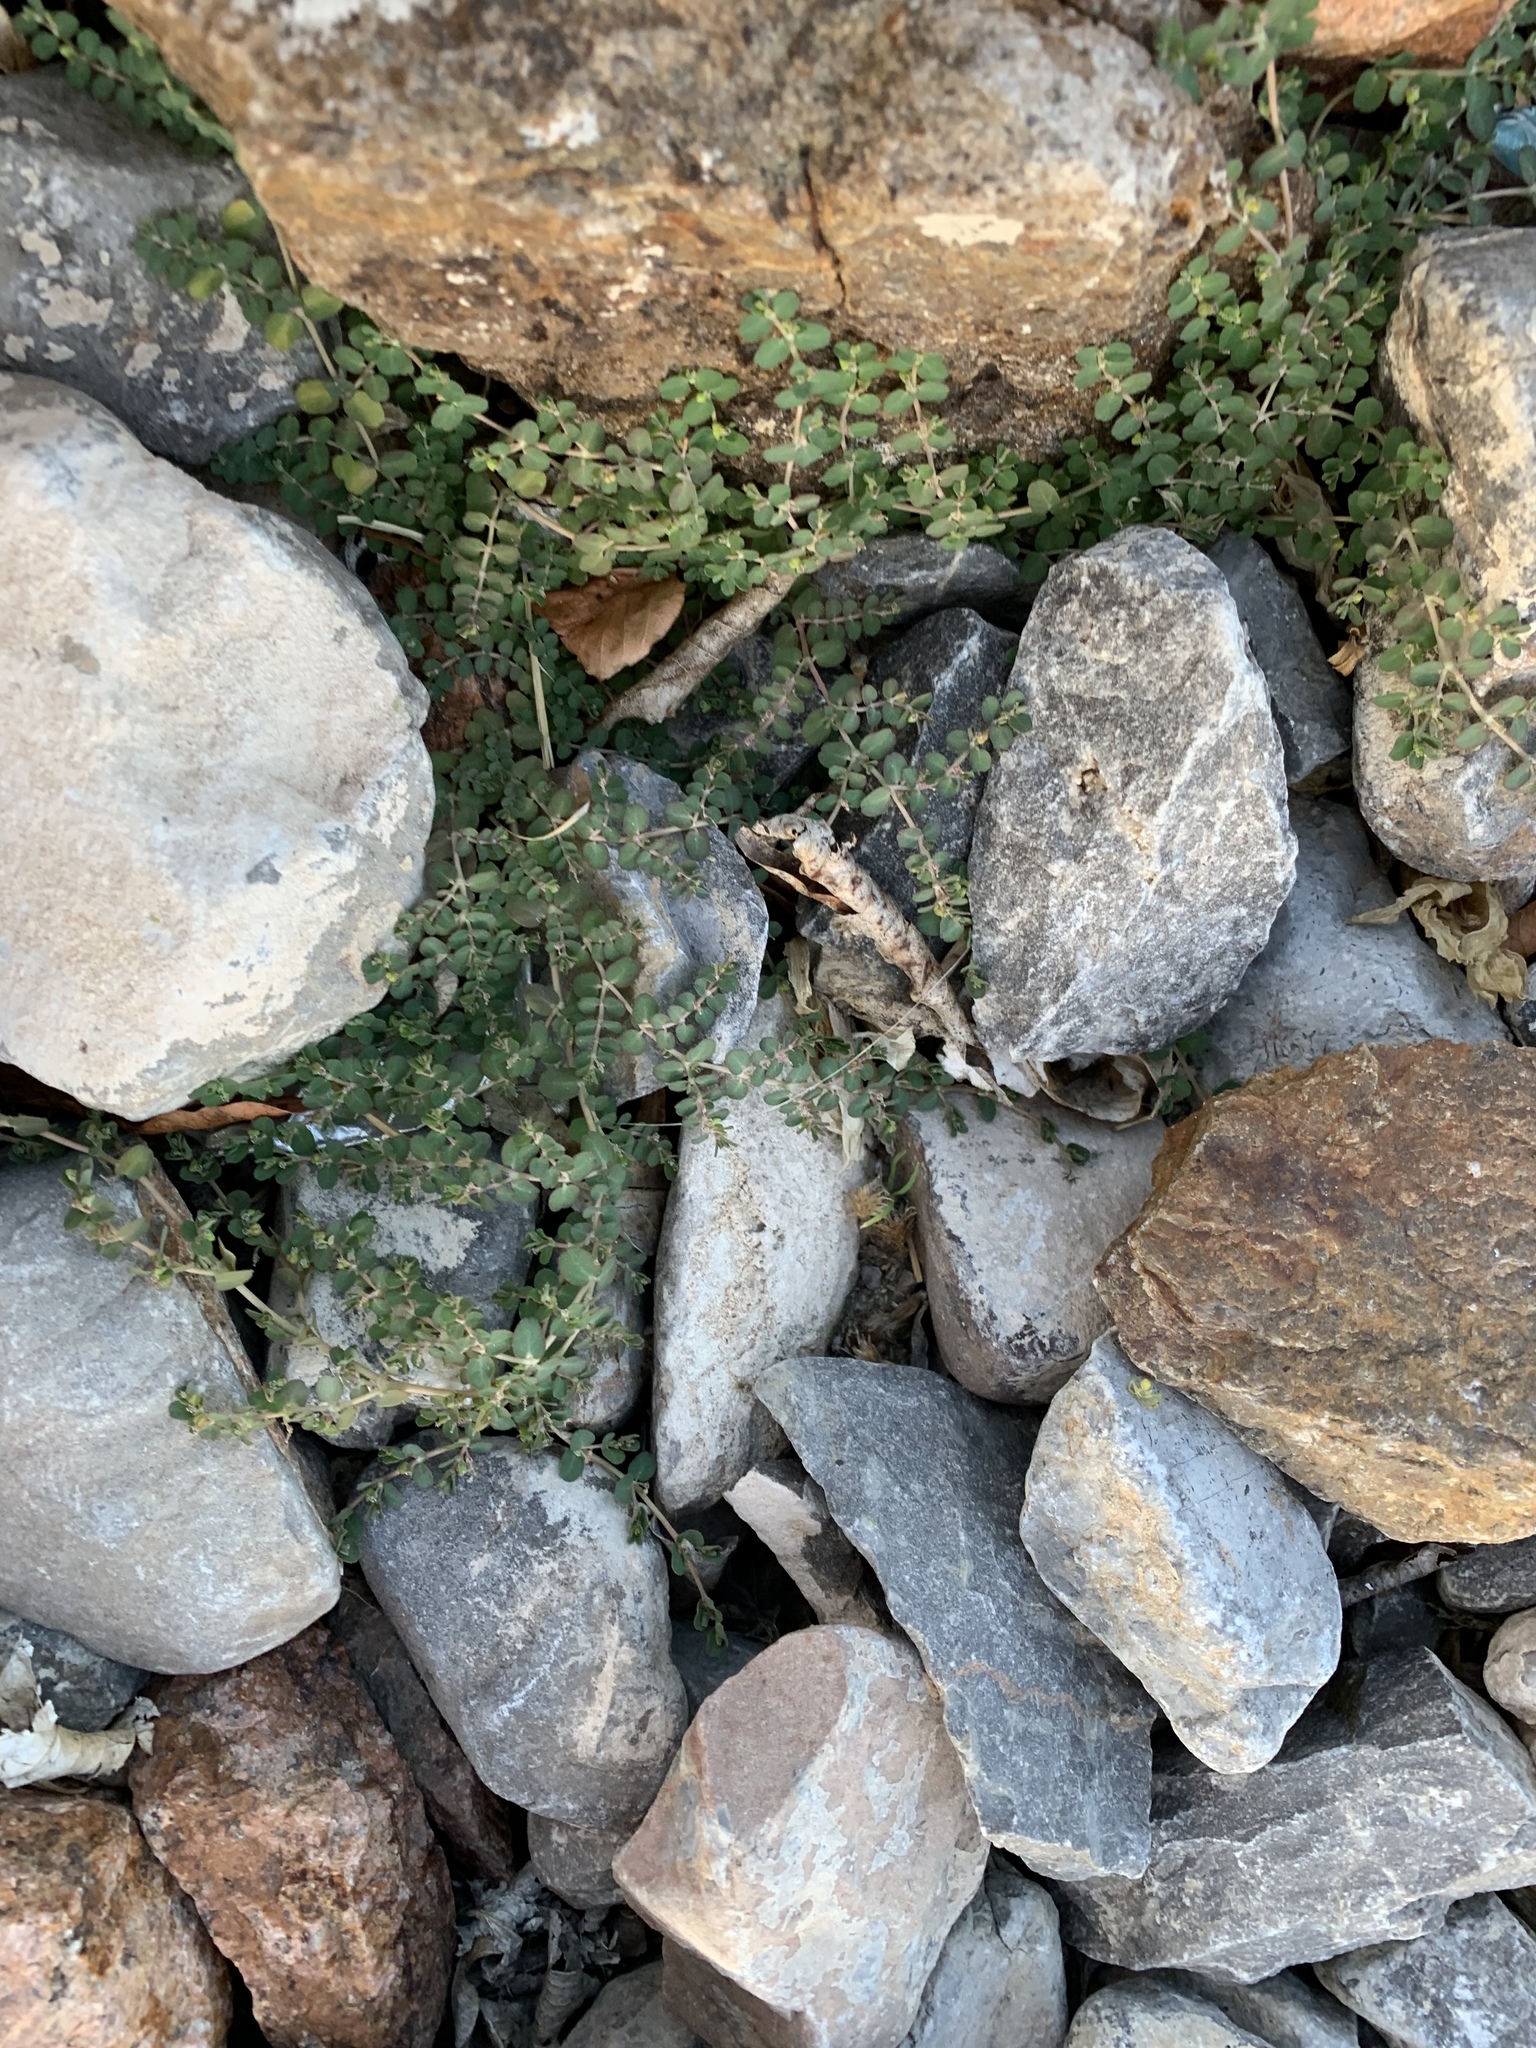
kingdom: Plantae
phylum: Tracheophyta
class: Magnoliopsida
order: Malpighiales
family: Euphorbiaceae
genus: Euphorbia
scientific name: Euphorbia serpens
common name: Matted sandmat
